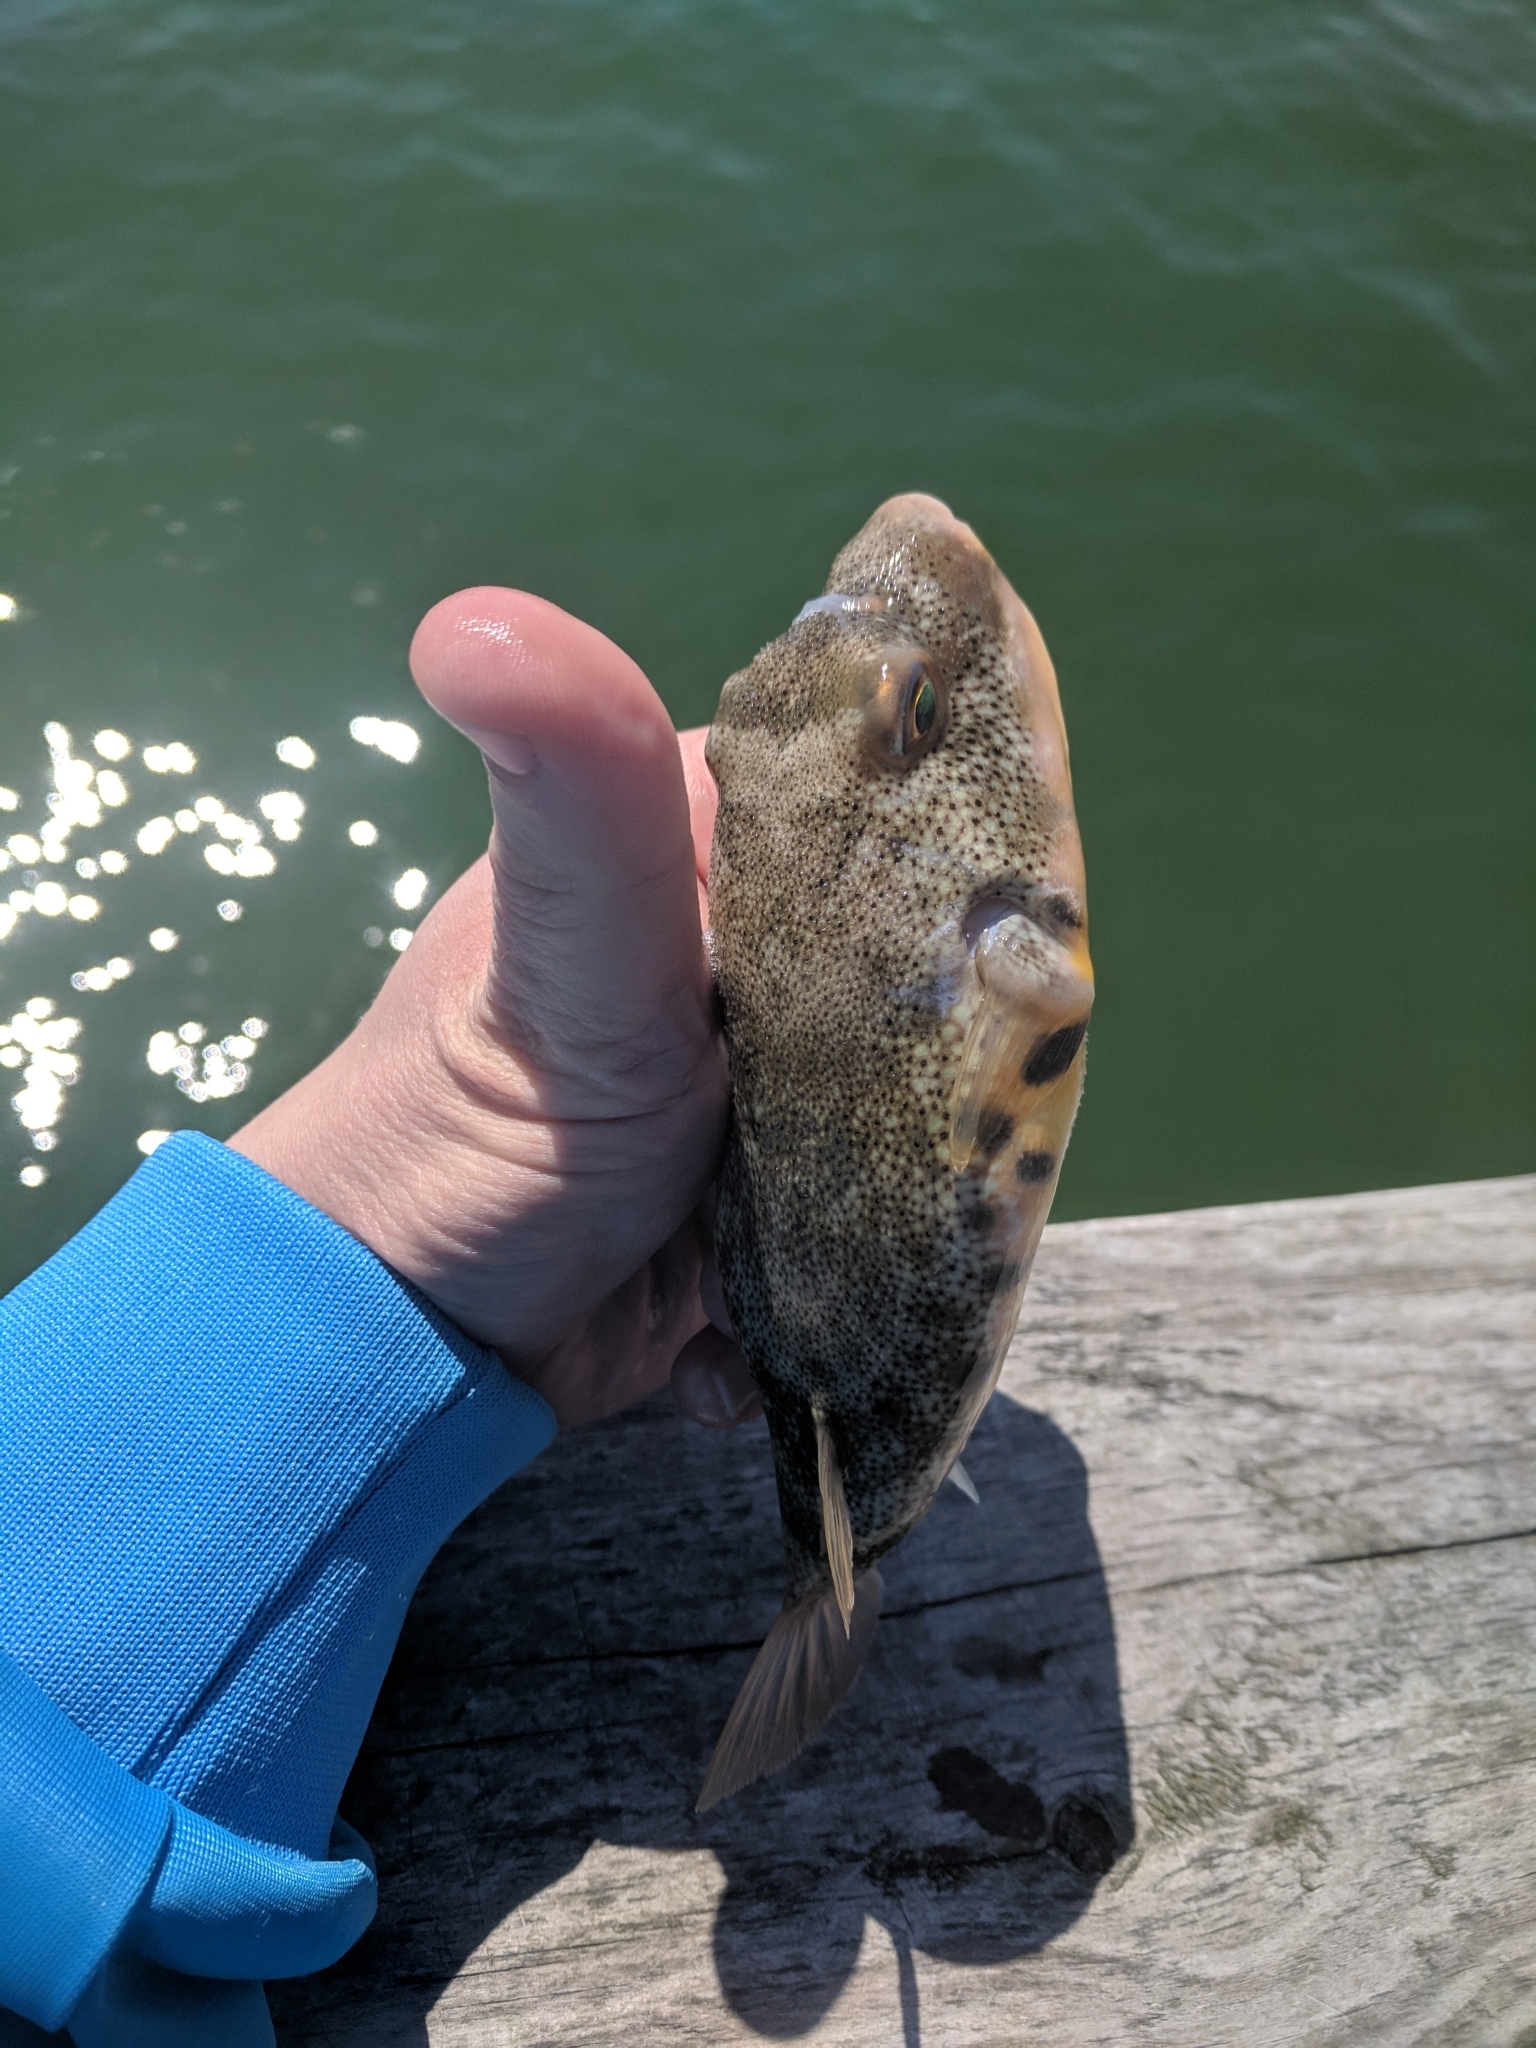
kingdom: Animalia
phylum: Chordata
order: Tetraodontiformes
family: Tetraodontidae
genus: Sphoeroides
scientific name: Sphoeroides maculatus
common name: Northern puffer
